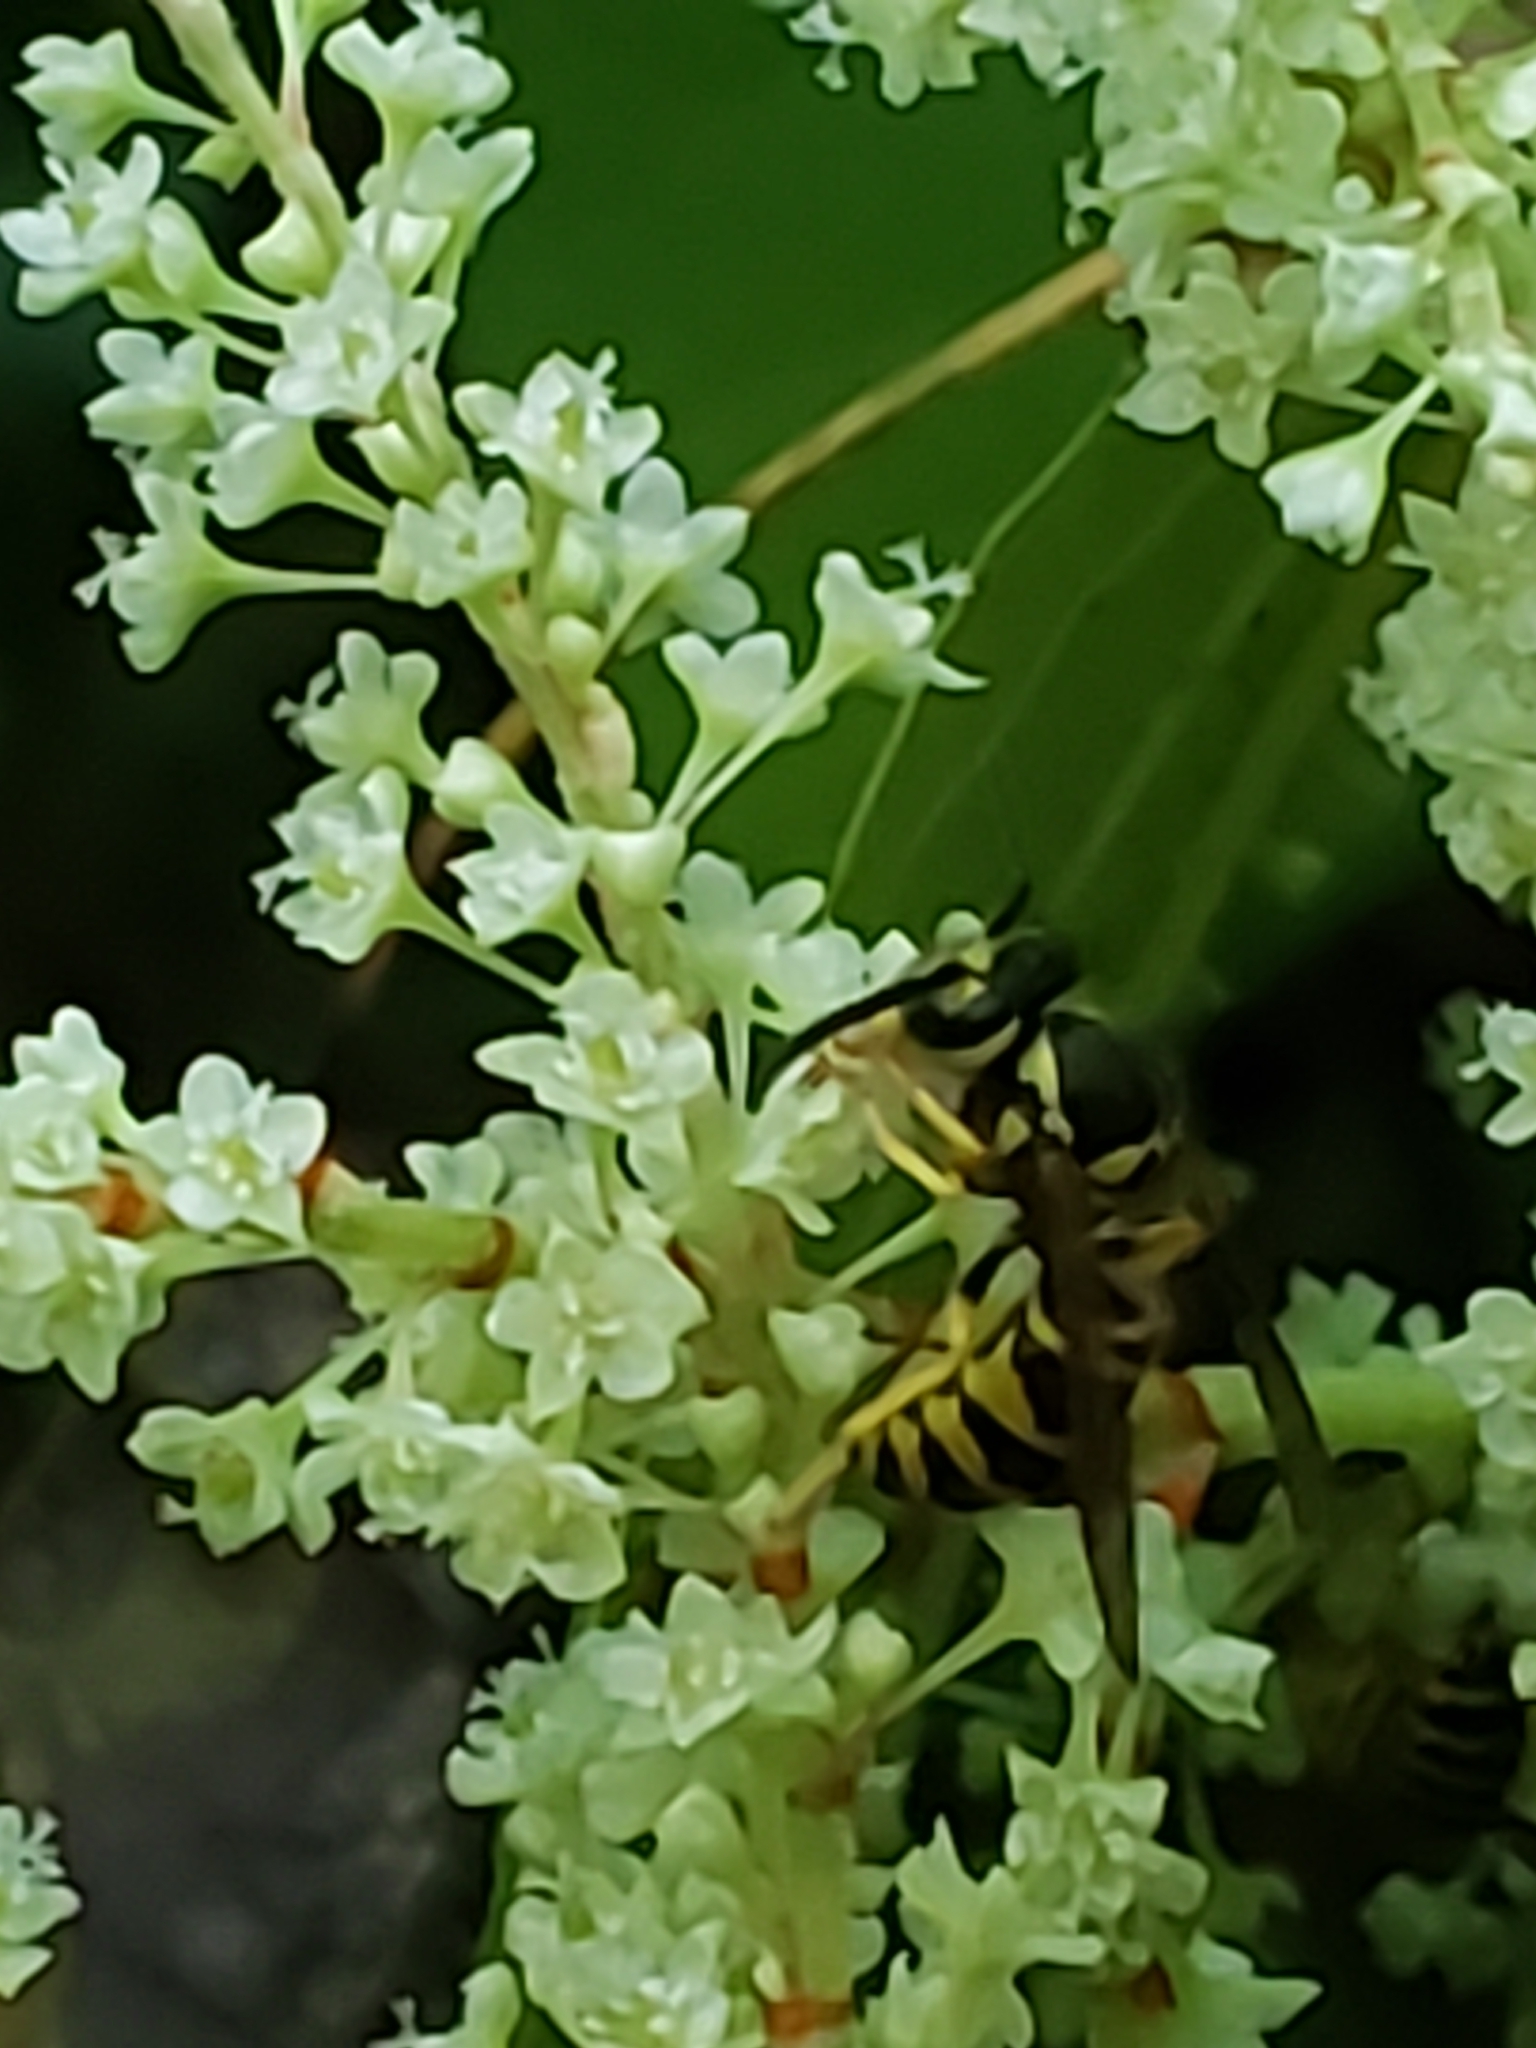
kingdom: Animalia
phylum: Arthropoda
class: Insecta
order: Hymenoptera
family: Vespidae
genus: Vespula
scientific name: Vespula maculifrons
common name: Eastern yellowjacket
